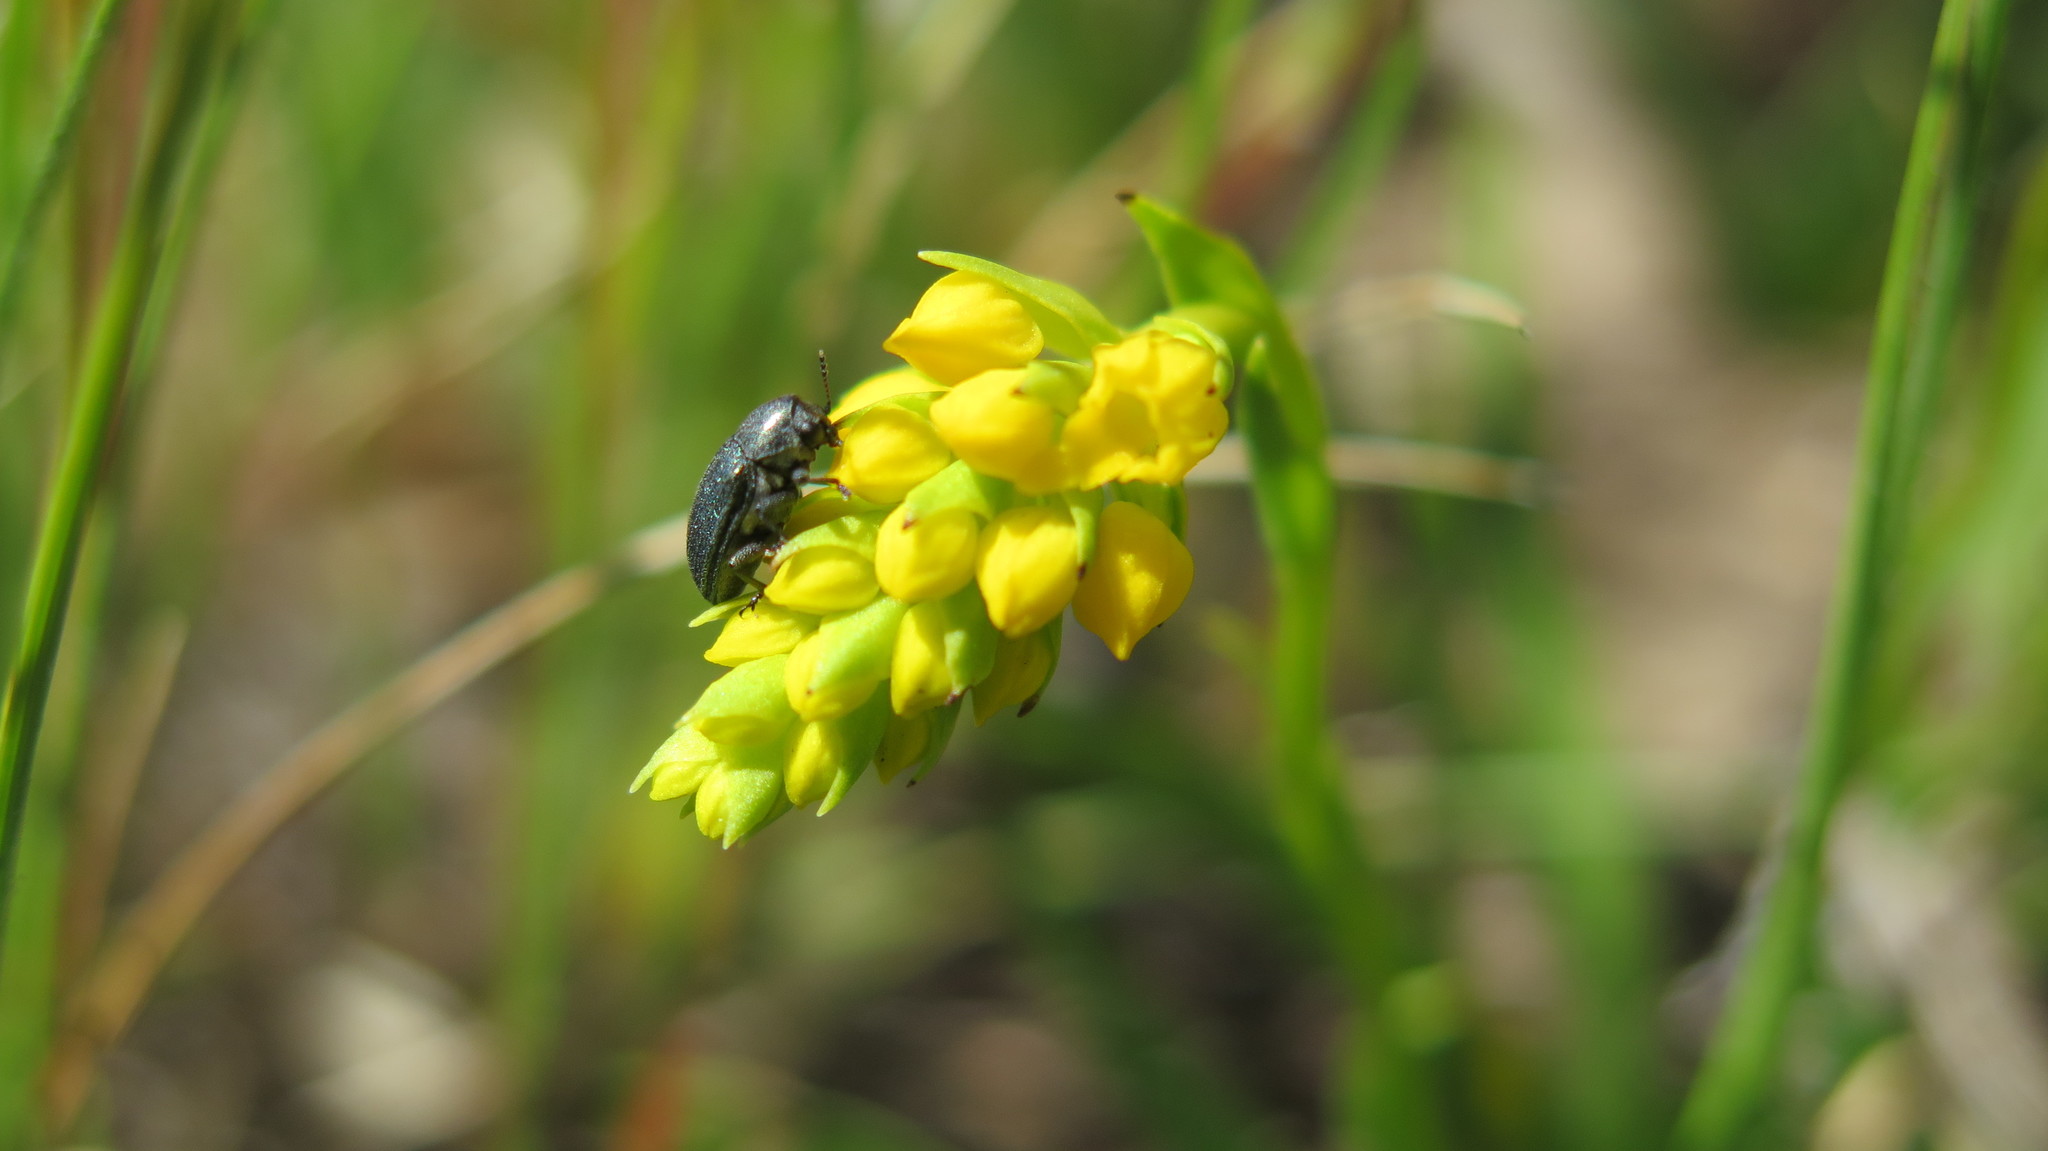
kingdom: Plantae
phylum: Tracheophyta
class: Liliopsida
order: Asparagales
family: Orchidaceae
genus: Schizochilus
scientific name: Schizochilus bulbinella
